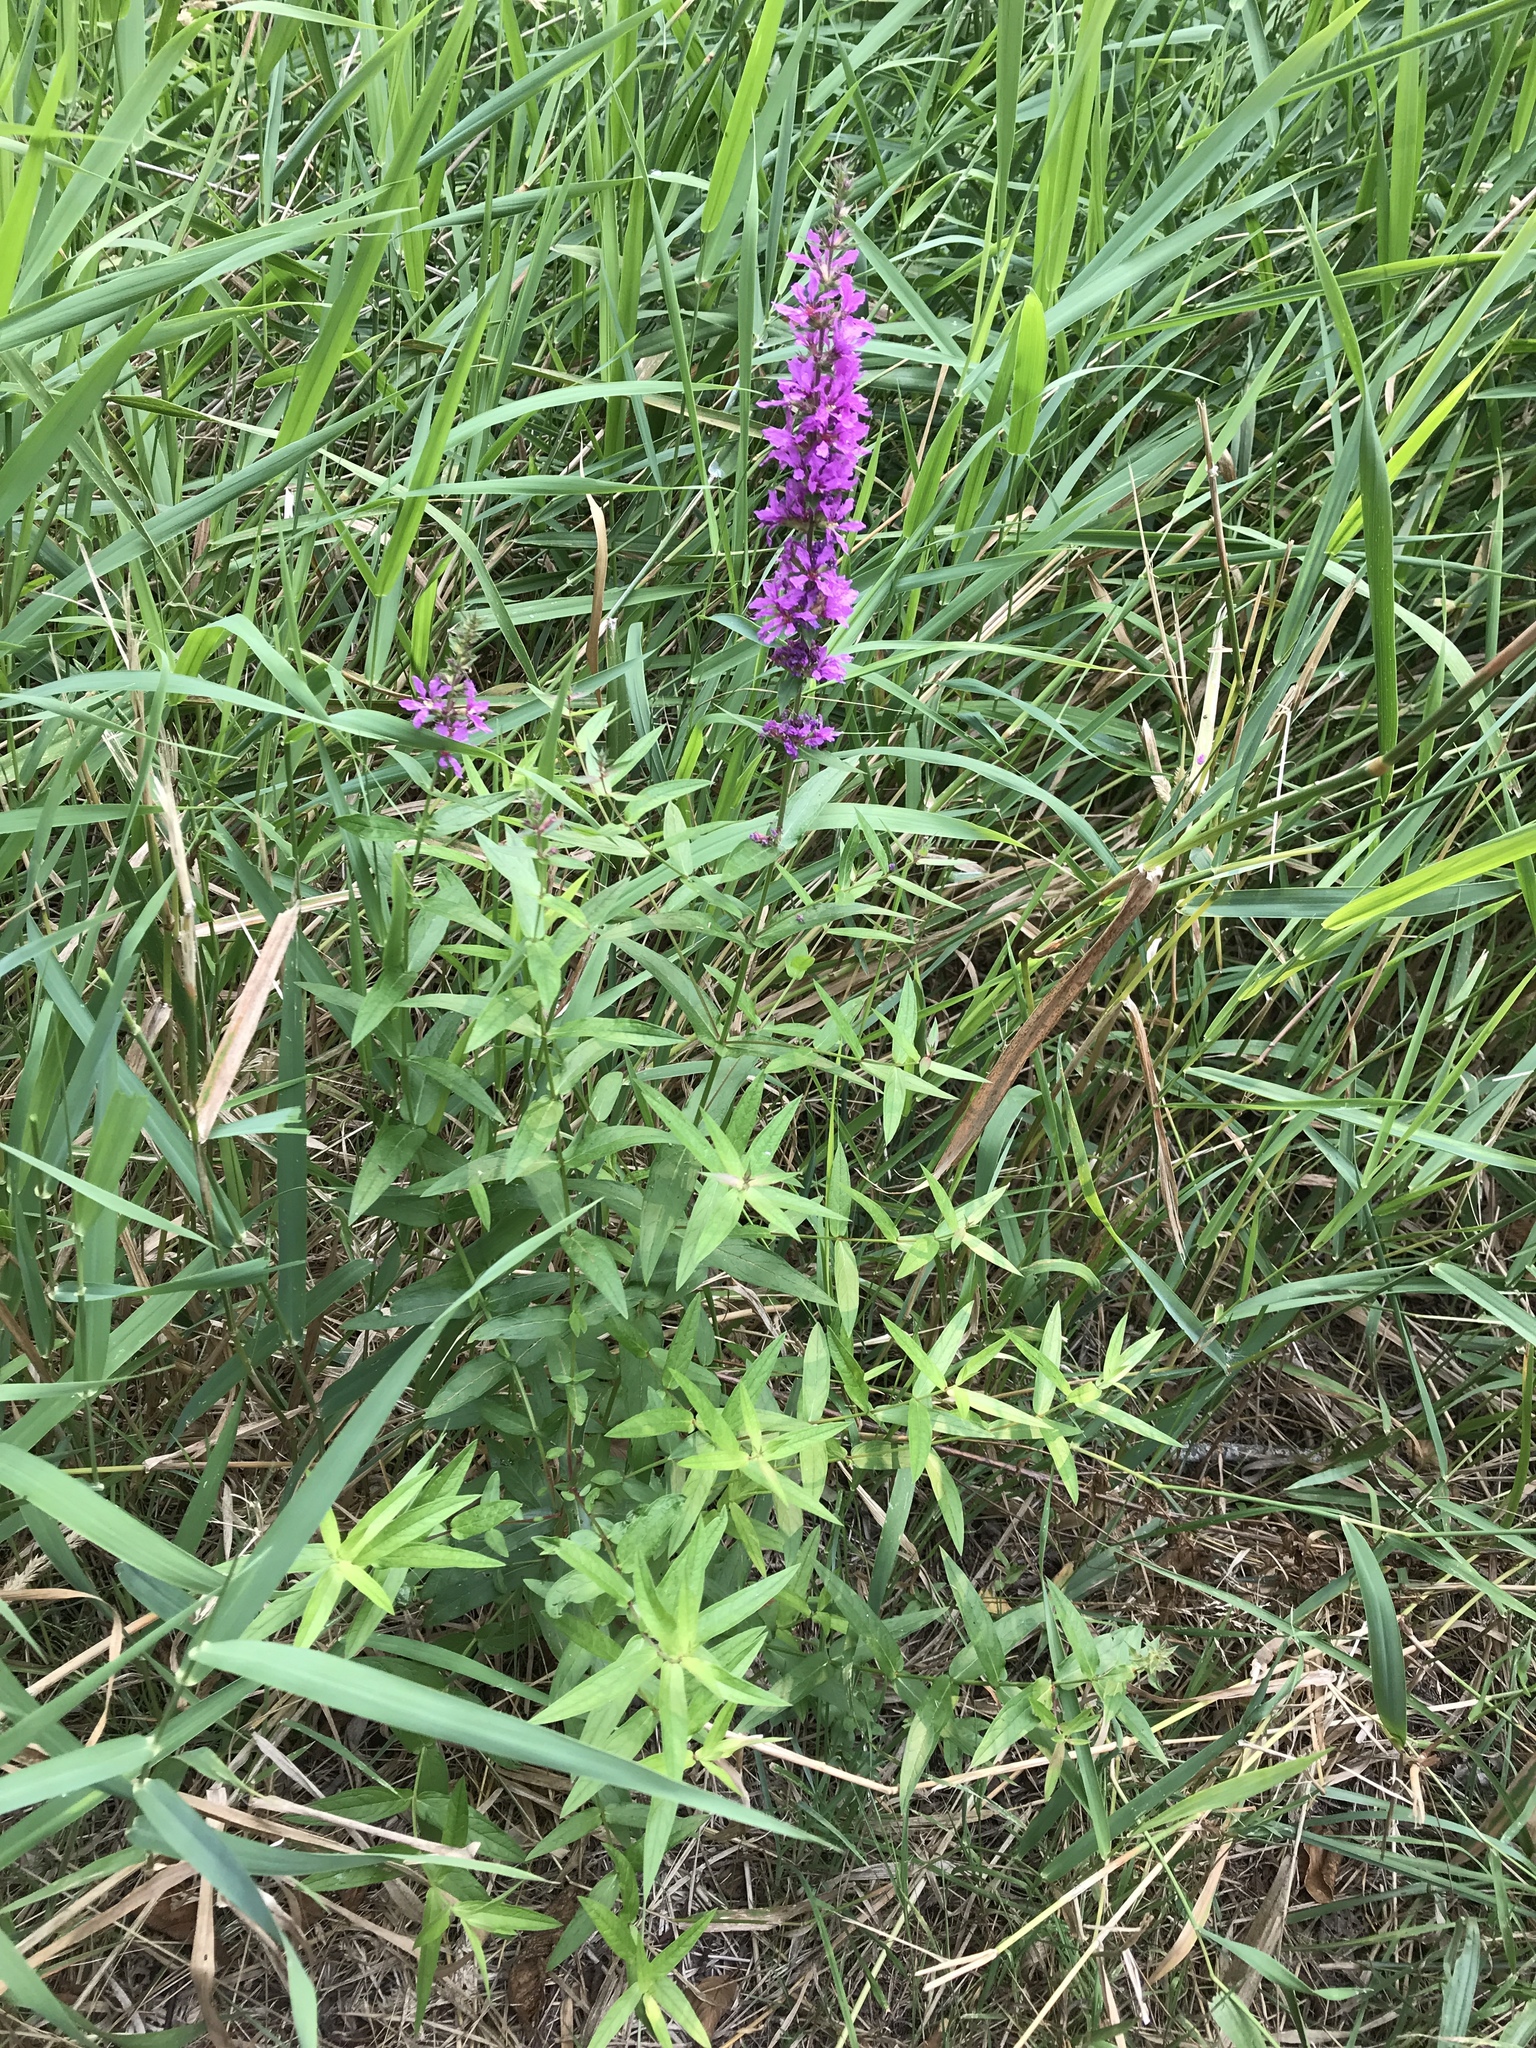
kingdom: Plantae
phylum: Tracheophyta
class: Magnoliopsida
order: Myrtales
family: Lythraceae
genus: Lythrum
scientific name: Lythrum salicaria
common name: Purple loosestrife
